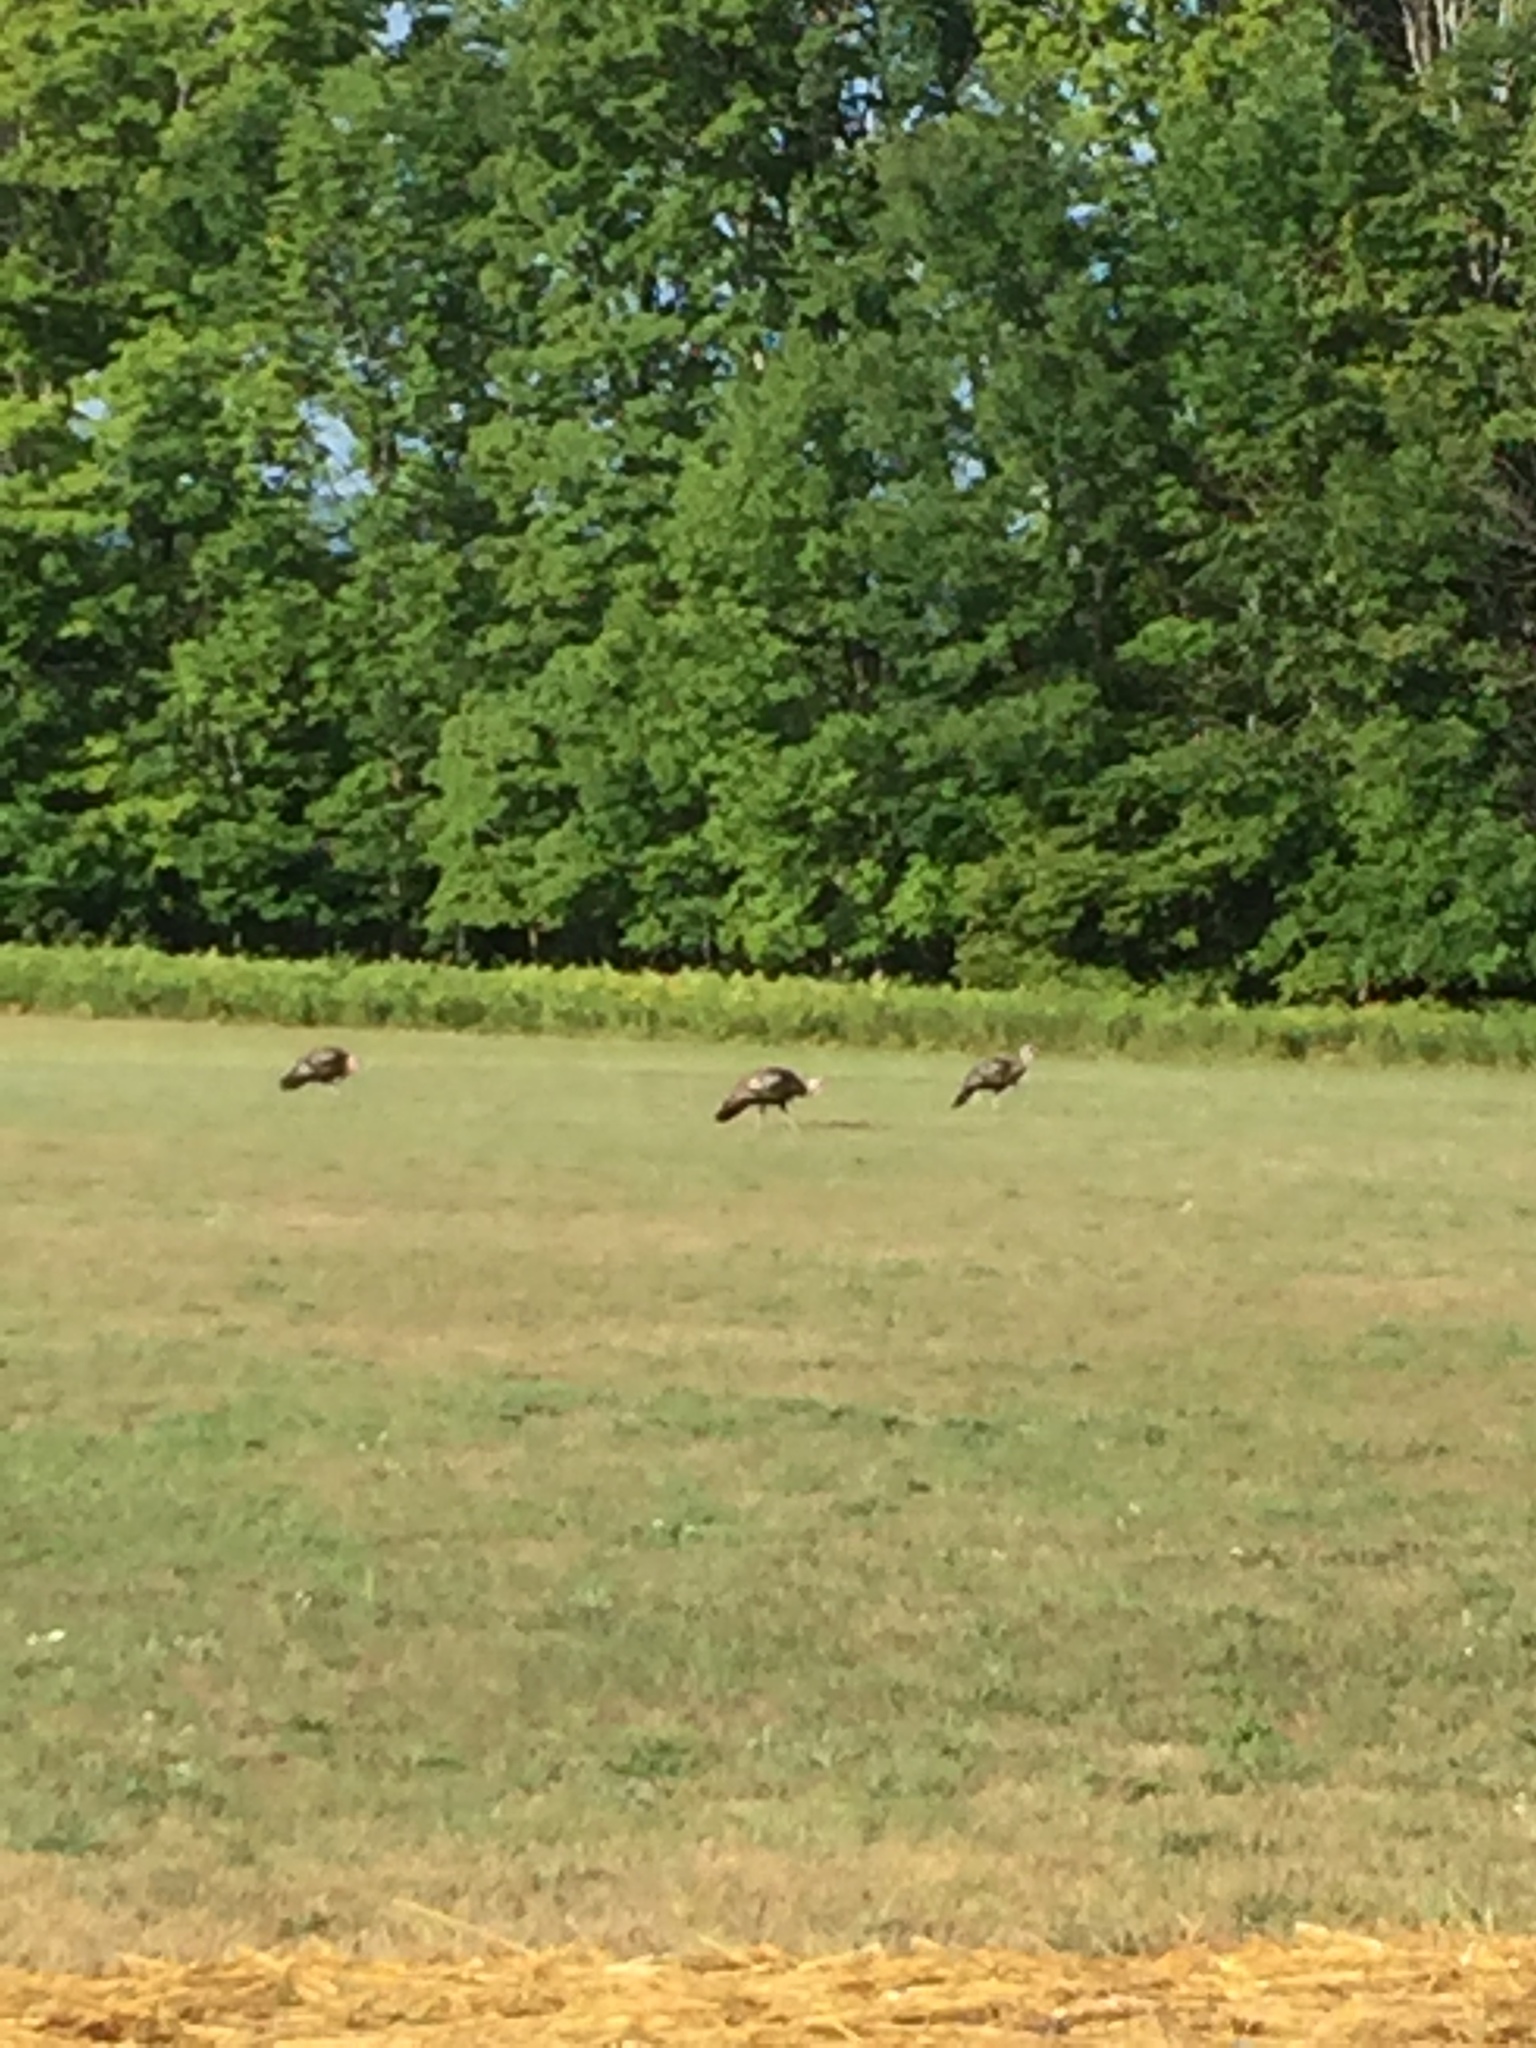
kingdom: Animalia
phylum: Chordata
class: Aves
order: Galliformes
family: Phasianidae
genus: Meleagris
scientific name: Meleagris gallopavo
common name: Wild turkey
